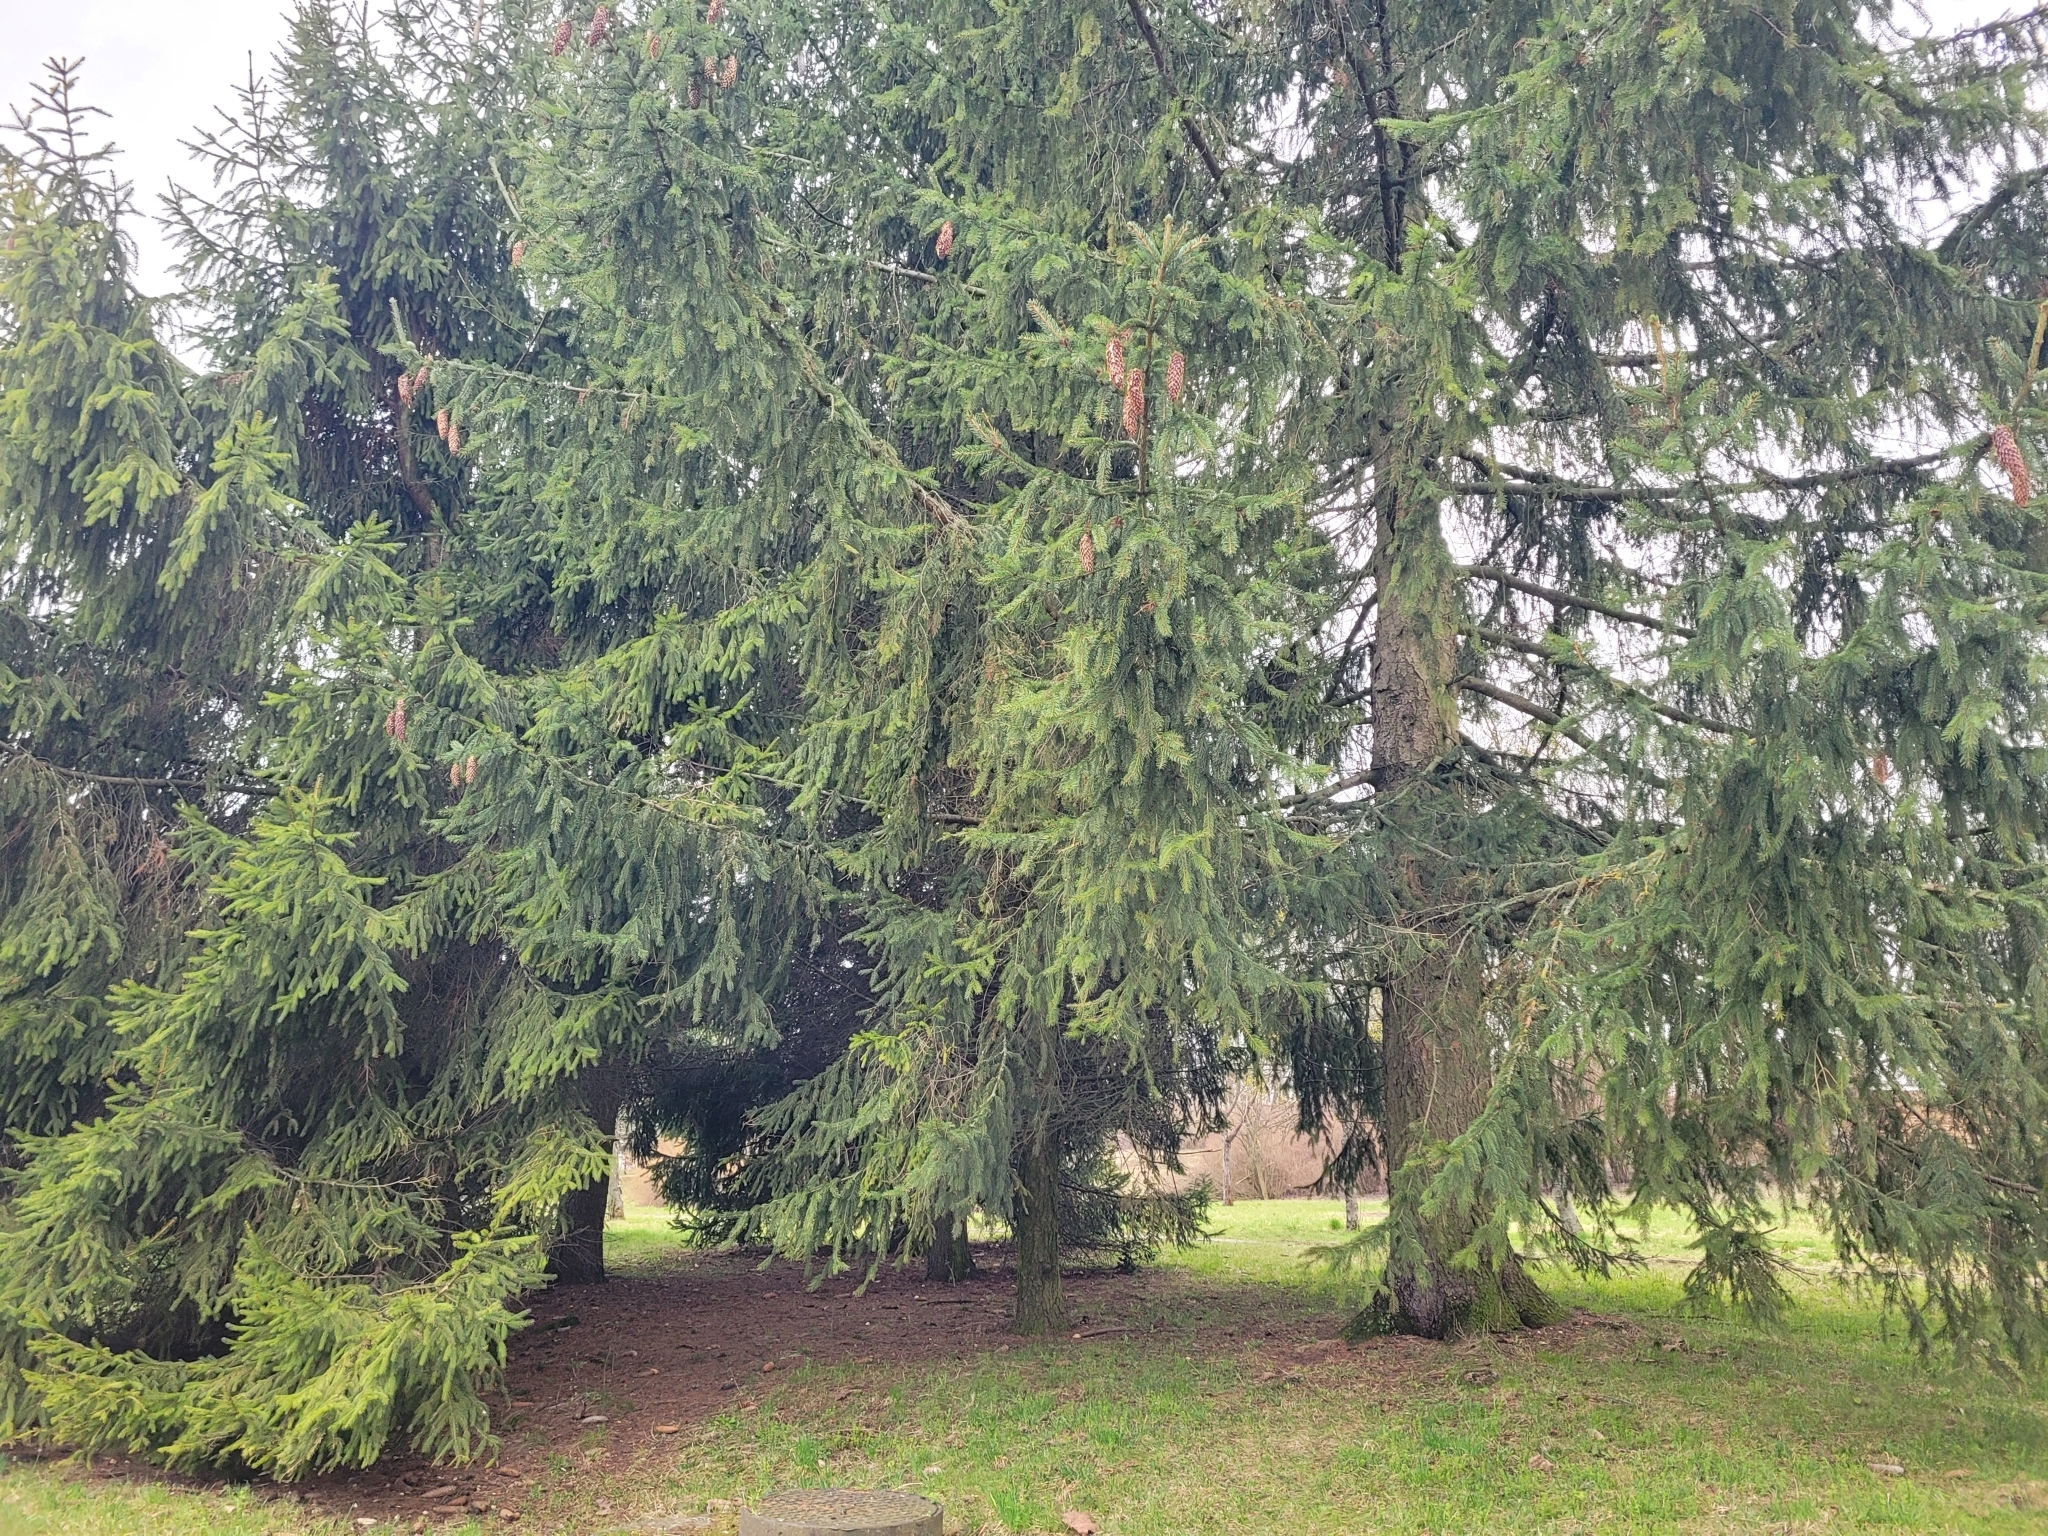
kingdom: Plantae
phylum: Tracheophyta
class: Pinopsida
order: Pinales
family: Pinaceae
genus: Picea
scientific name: Picea abies
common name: Norway spruce
